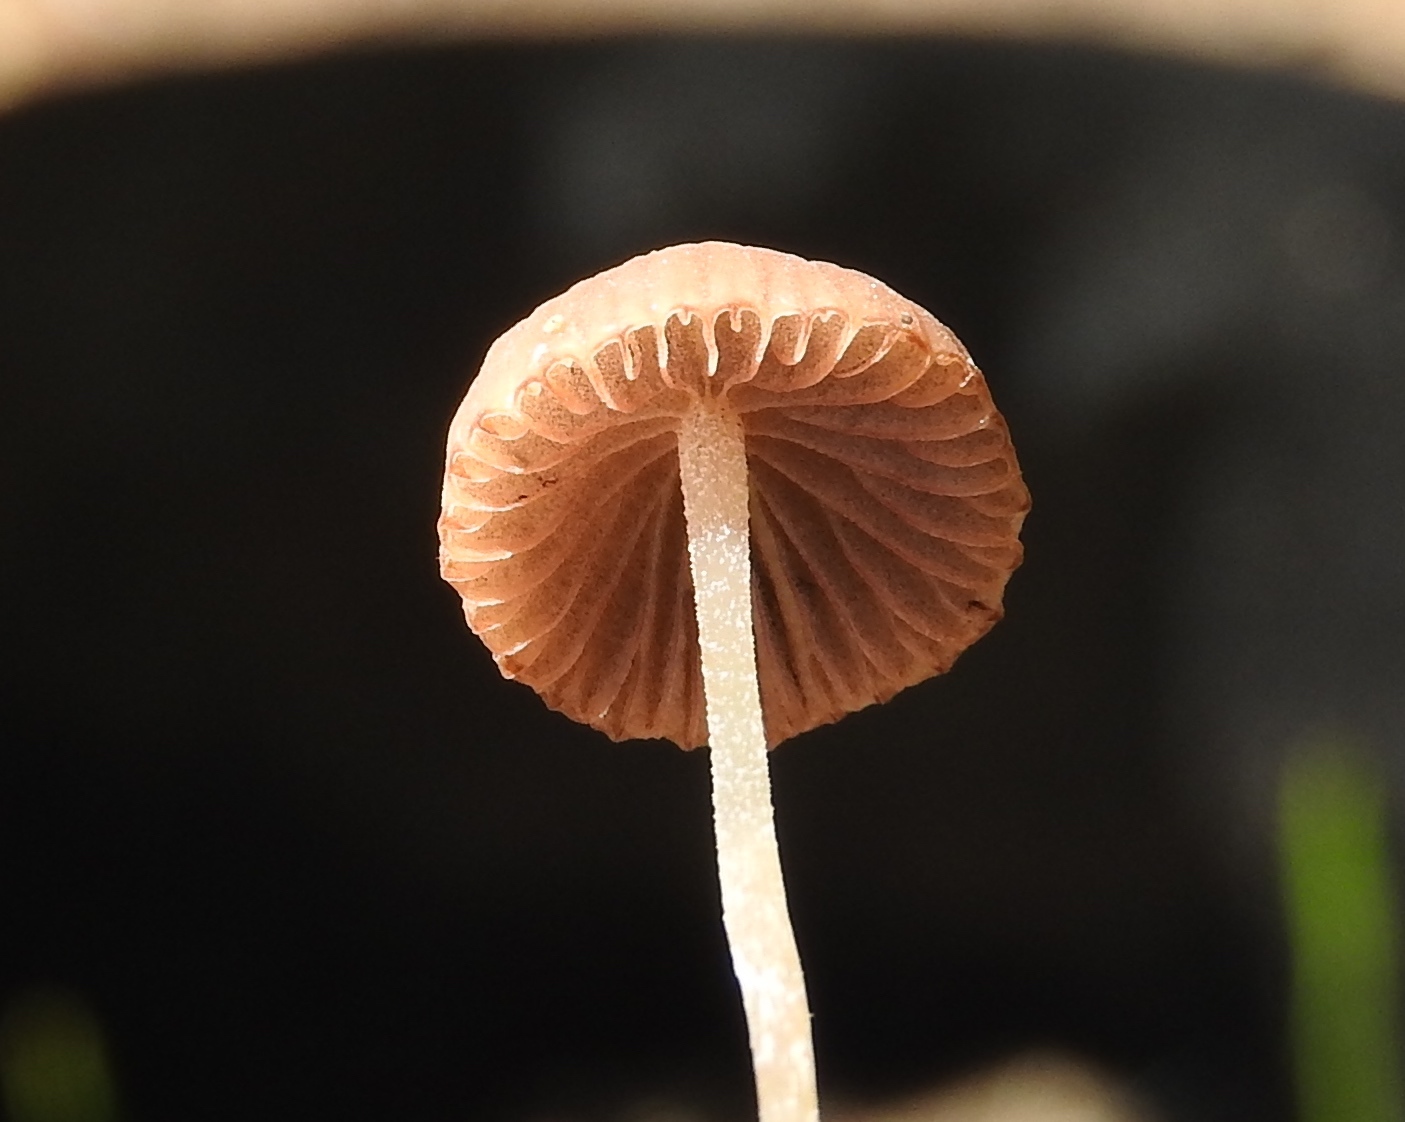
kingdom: Fungi
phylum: Basidiomycota
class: Agaricomycetes
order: Agaricales
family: Psathyrellaceae
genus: Psathyrella
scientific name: Psathyrella
